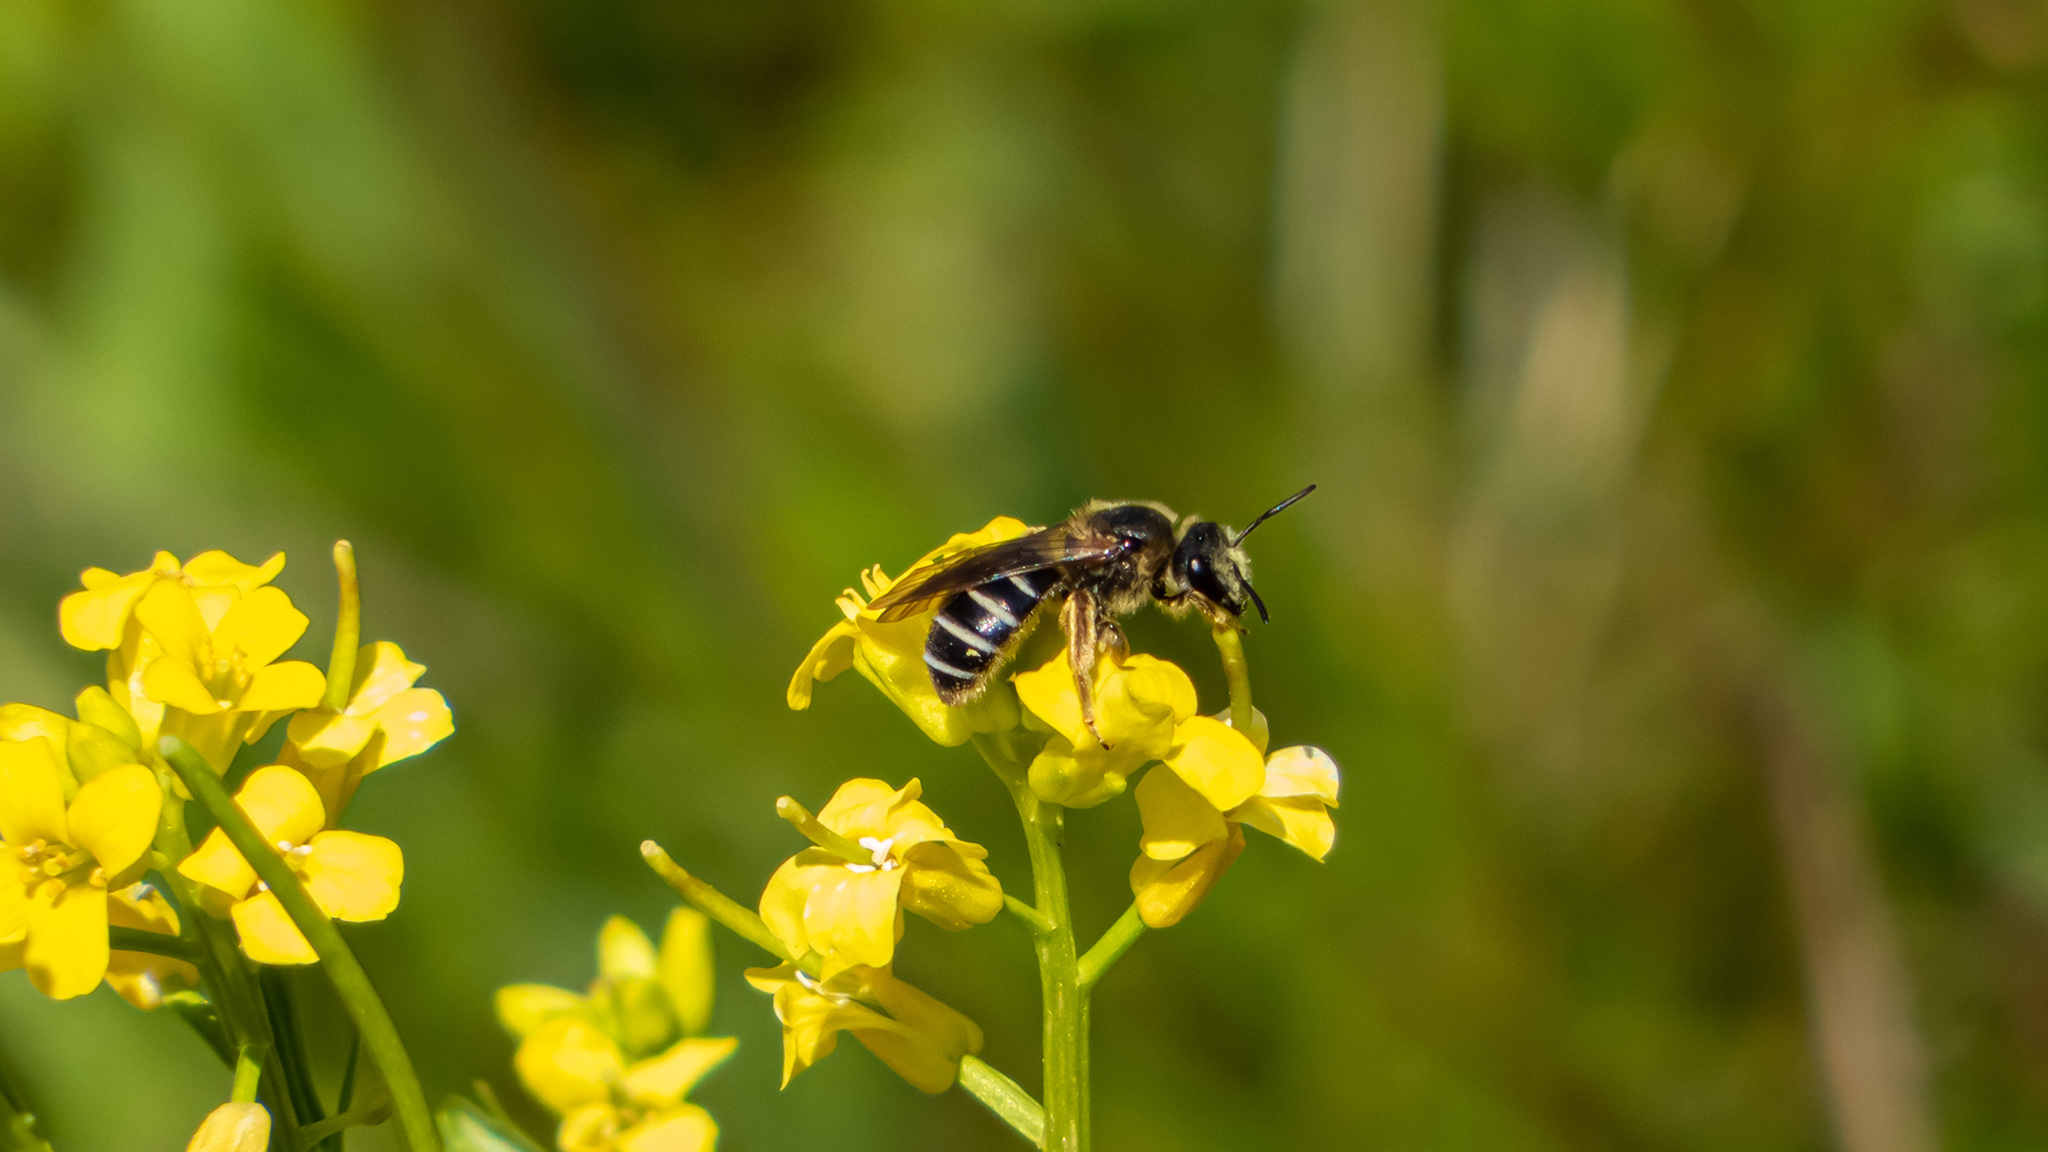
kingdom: Animalia
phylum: Arthropoda
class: Insecta
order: Hymenoptera
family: Halictidae
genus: Halictus
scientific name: Halictus rubicundus
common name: Orange-legged furrow bee
